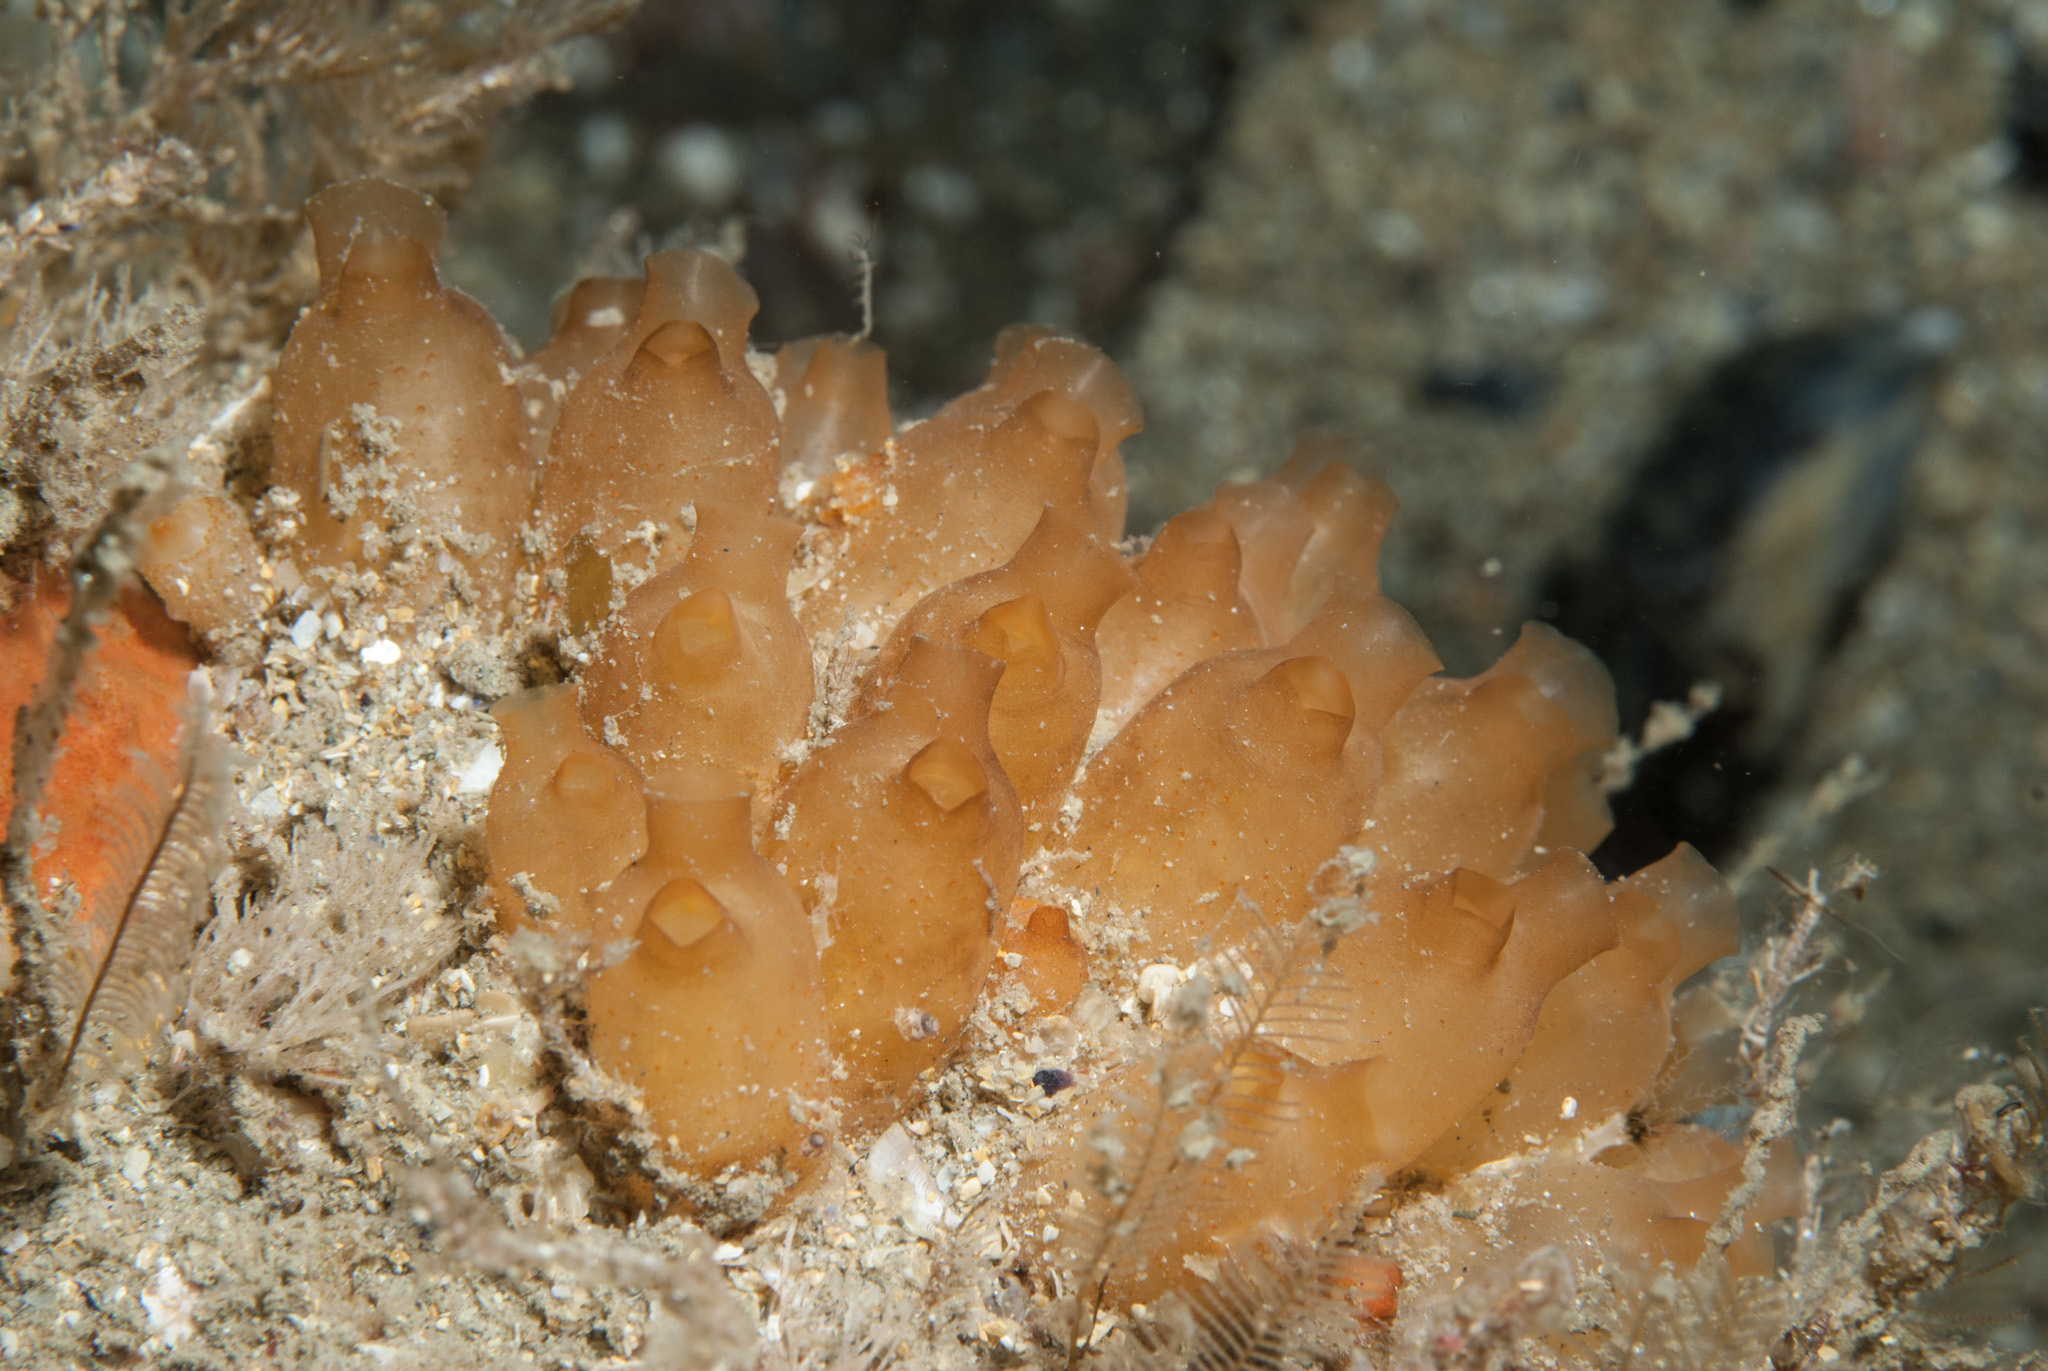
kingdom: Animalia
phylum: Chordata
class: Ascidiacea
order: Stolidobranchia
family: Styelidae
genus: Stolonica
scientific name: Stolonica socialis
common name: Orange sea grapes
